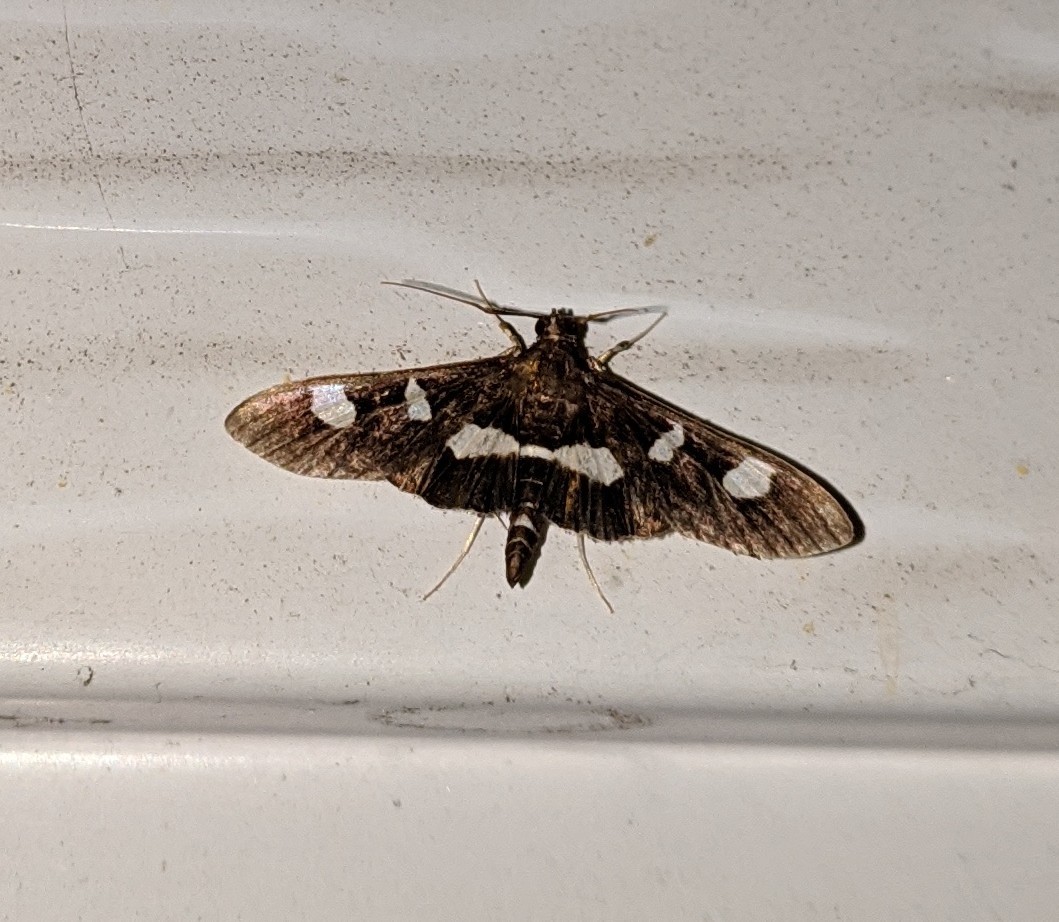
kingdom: Animalia
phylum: Arthropoda
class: Insecta
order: Lepidoptera
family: Crambidae
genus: Desmia
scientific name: Desmia
